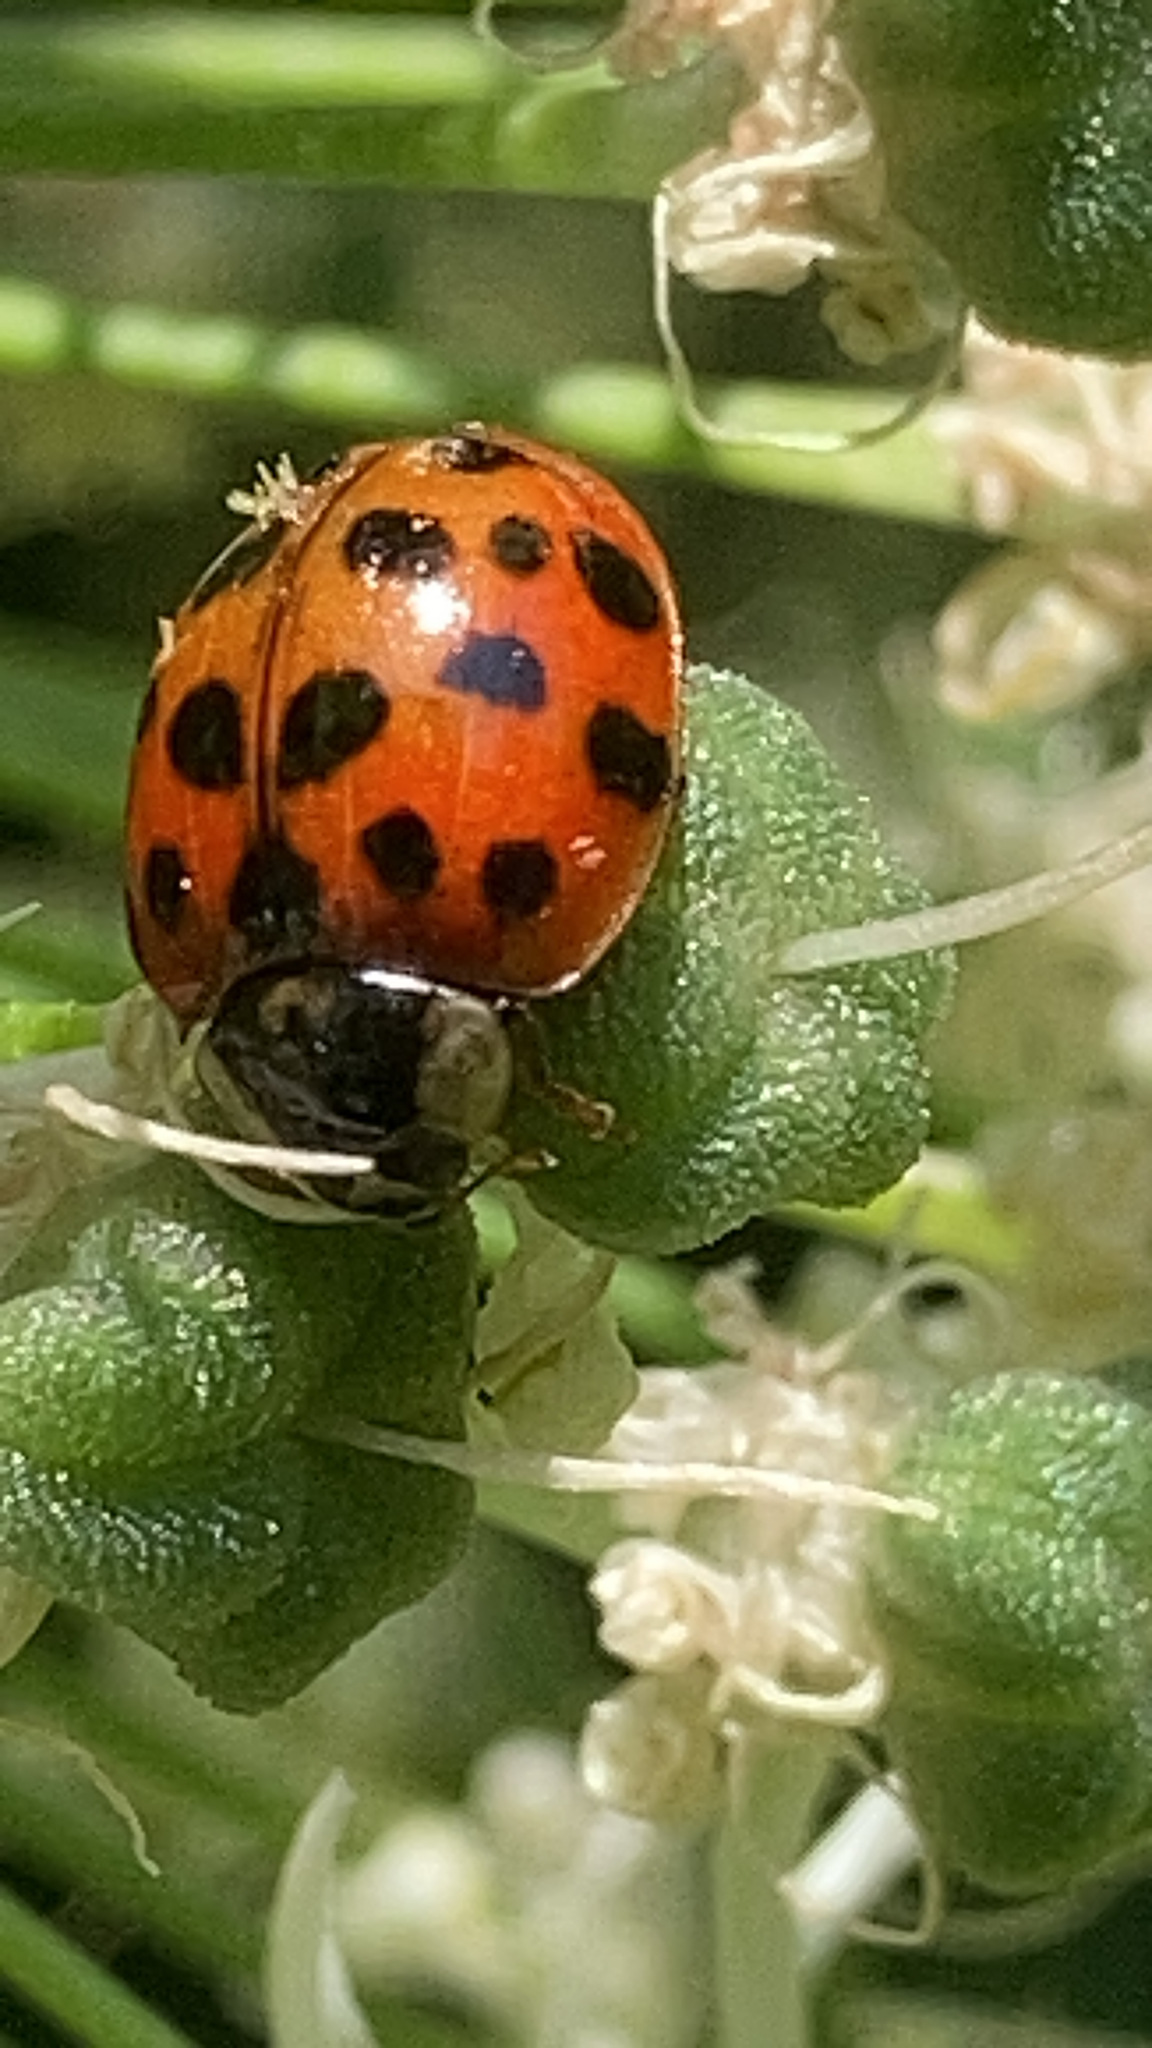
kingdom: Fungi
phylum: Ascomycota
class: Laboulbeniomycetes
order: Laboulbeniales
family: Laboulbeniaceae
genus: Hesperomyces
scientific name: Hesperomyces harmoniae
